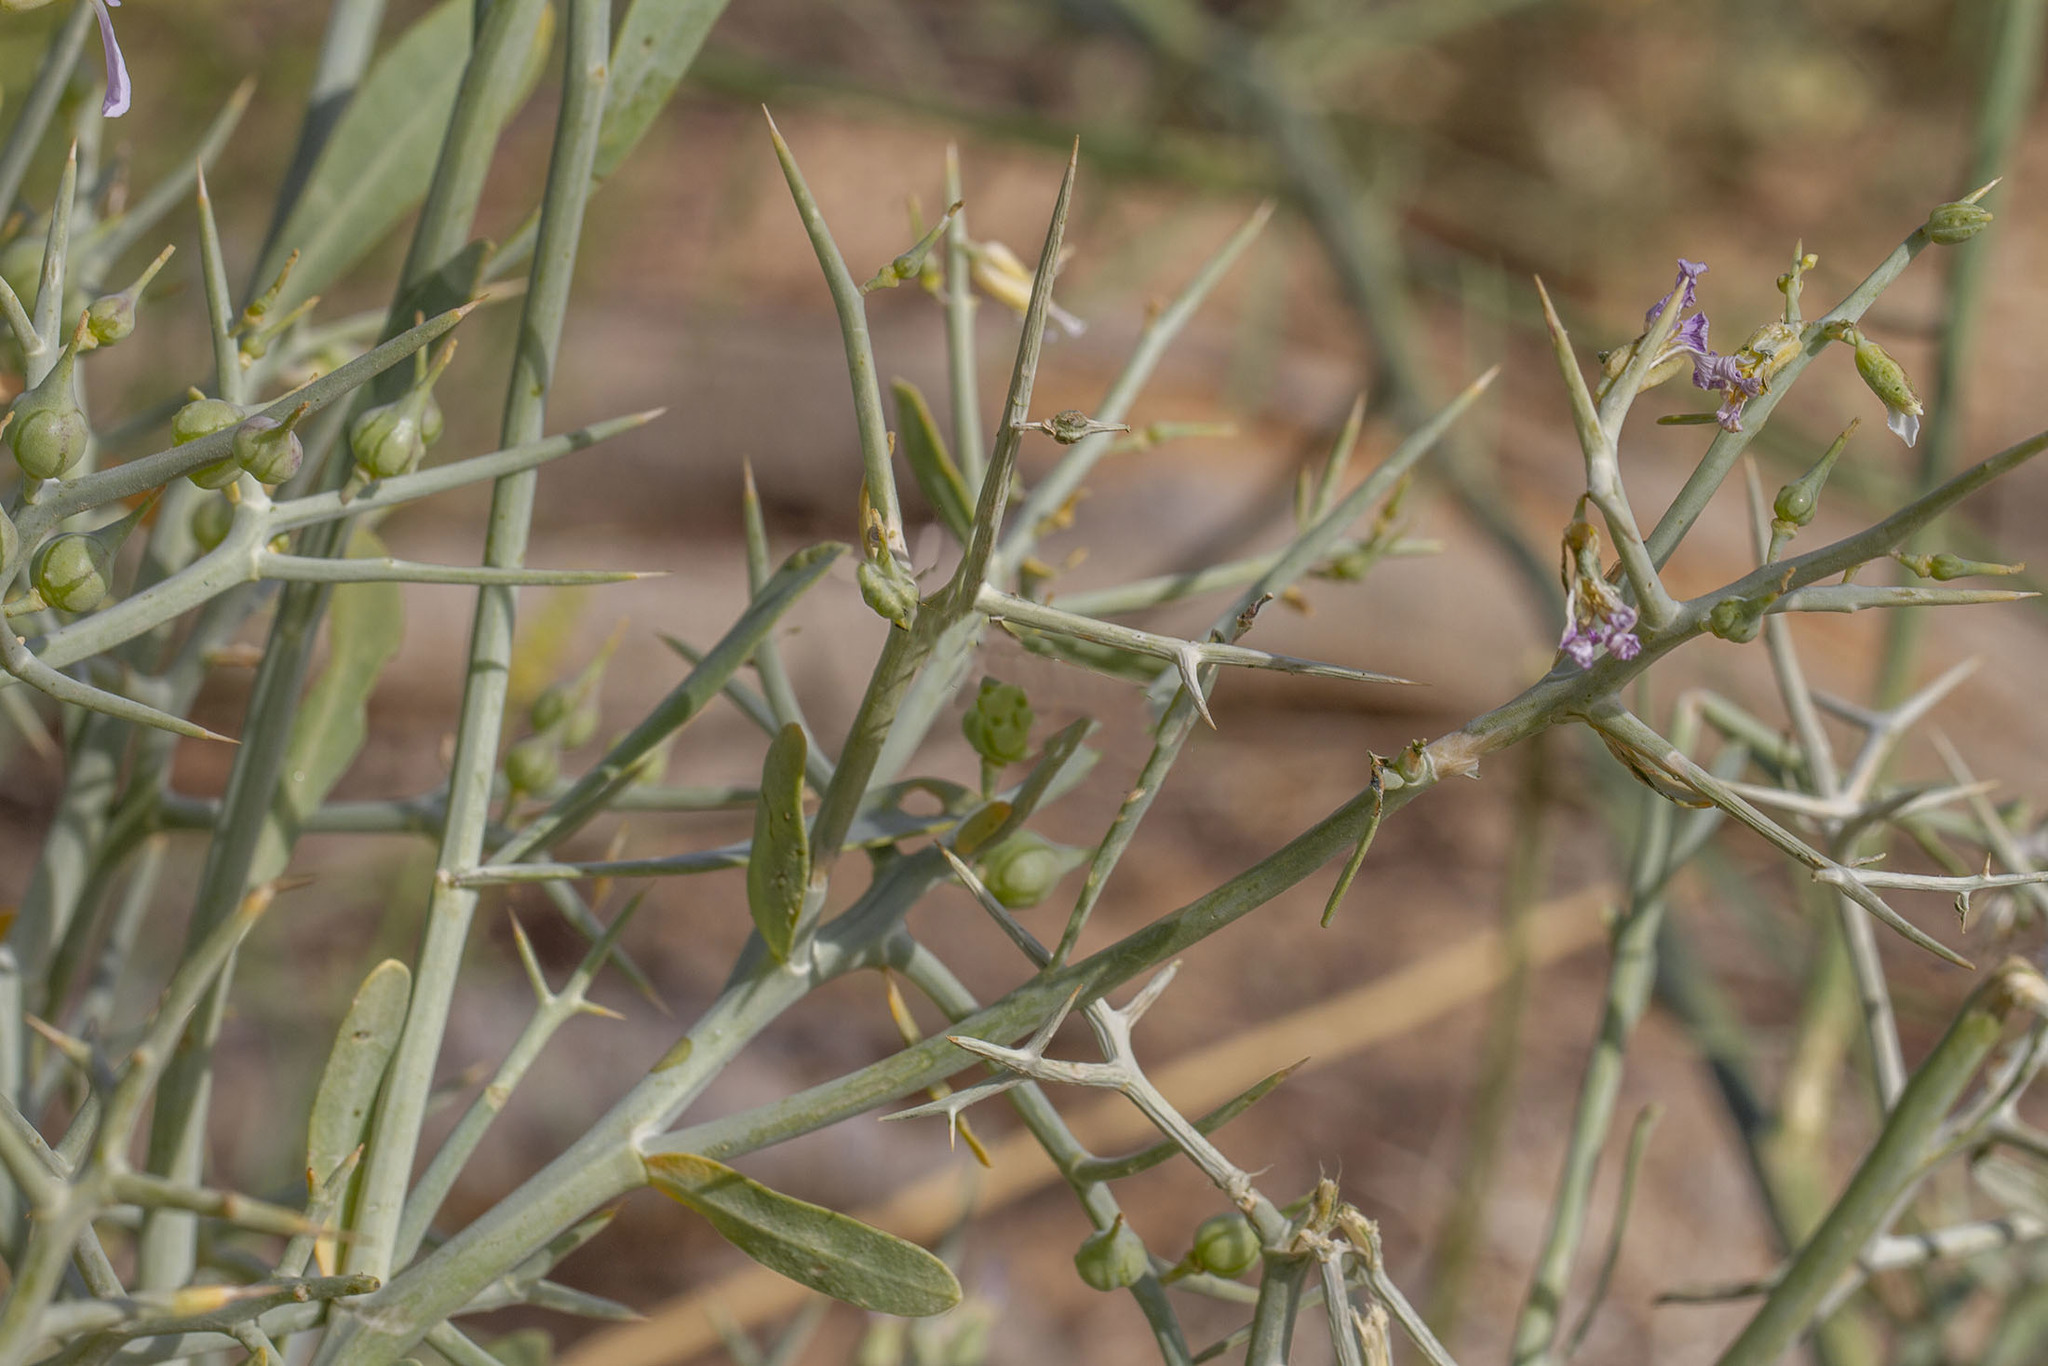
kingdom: Plantae
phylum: Tracheophyta
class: Magnoliopsida
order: Brassicales
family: Brassicaceae
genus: Zilla
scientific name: Zilla spinosa
